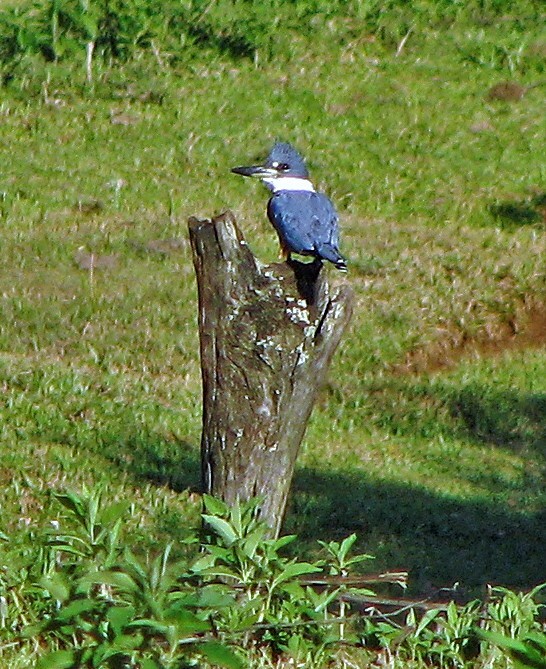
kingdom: Animalia
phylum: Chordata
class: Aves
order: Coraciiformes
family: Alcedinidae
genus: Megaceryle
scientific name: Megaceryle torquata
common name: Ringed kingfisher
